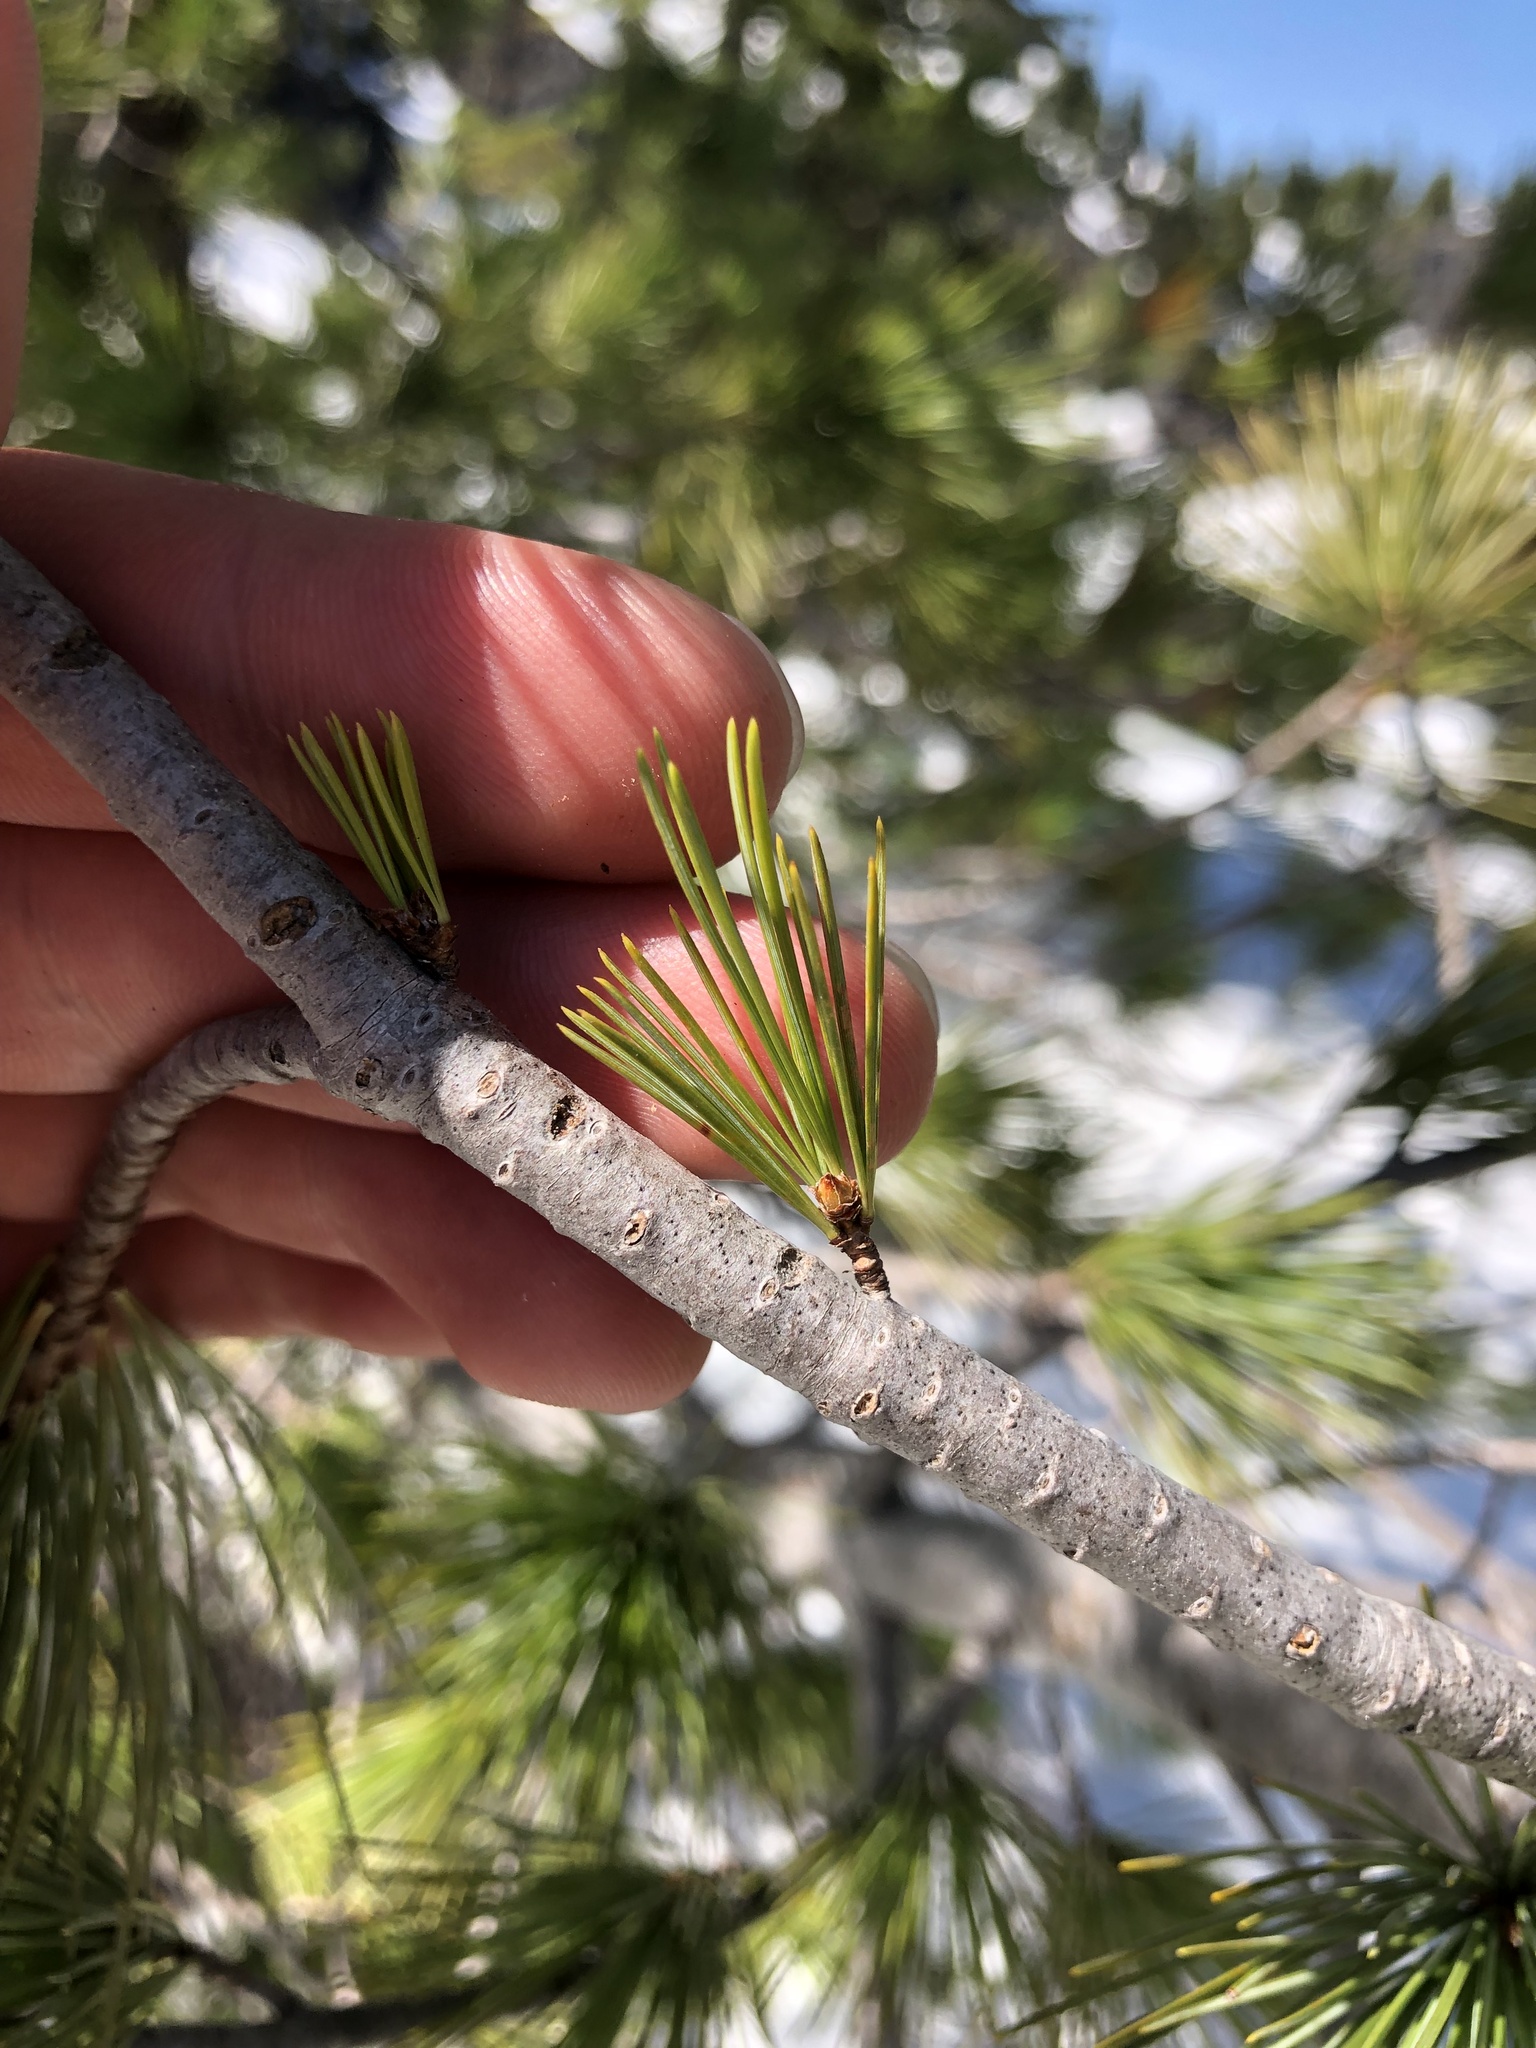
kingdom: Plantae
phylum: Tracheophyta
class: Pinopsida
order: Pinales
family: Pinaceae
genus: Pinus
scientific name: Pinus monticola
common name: Western white pine
